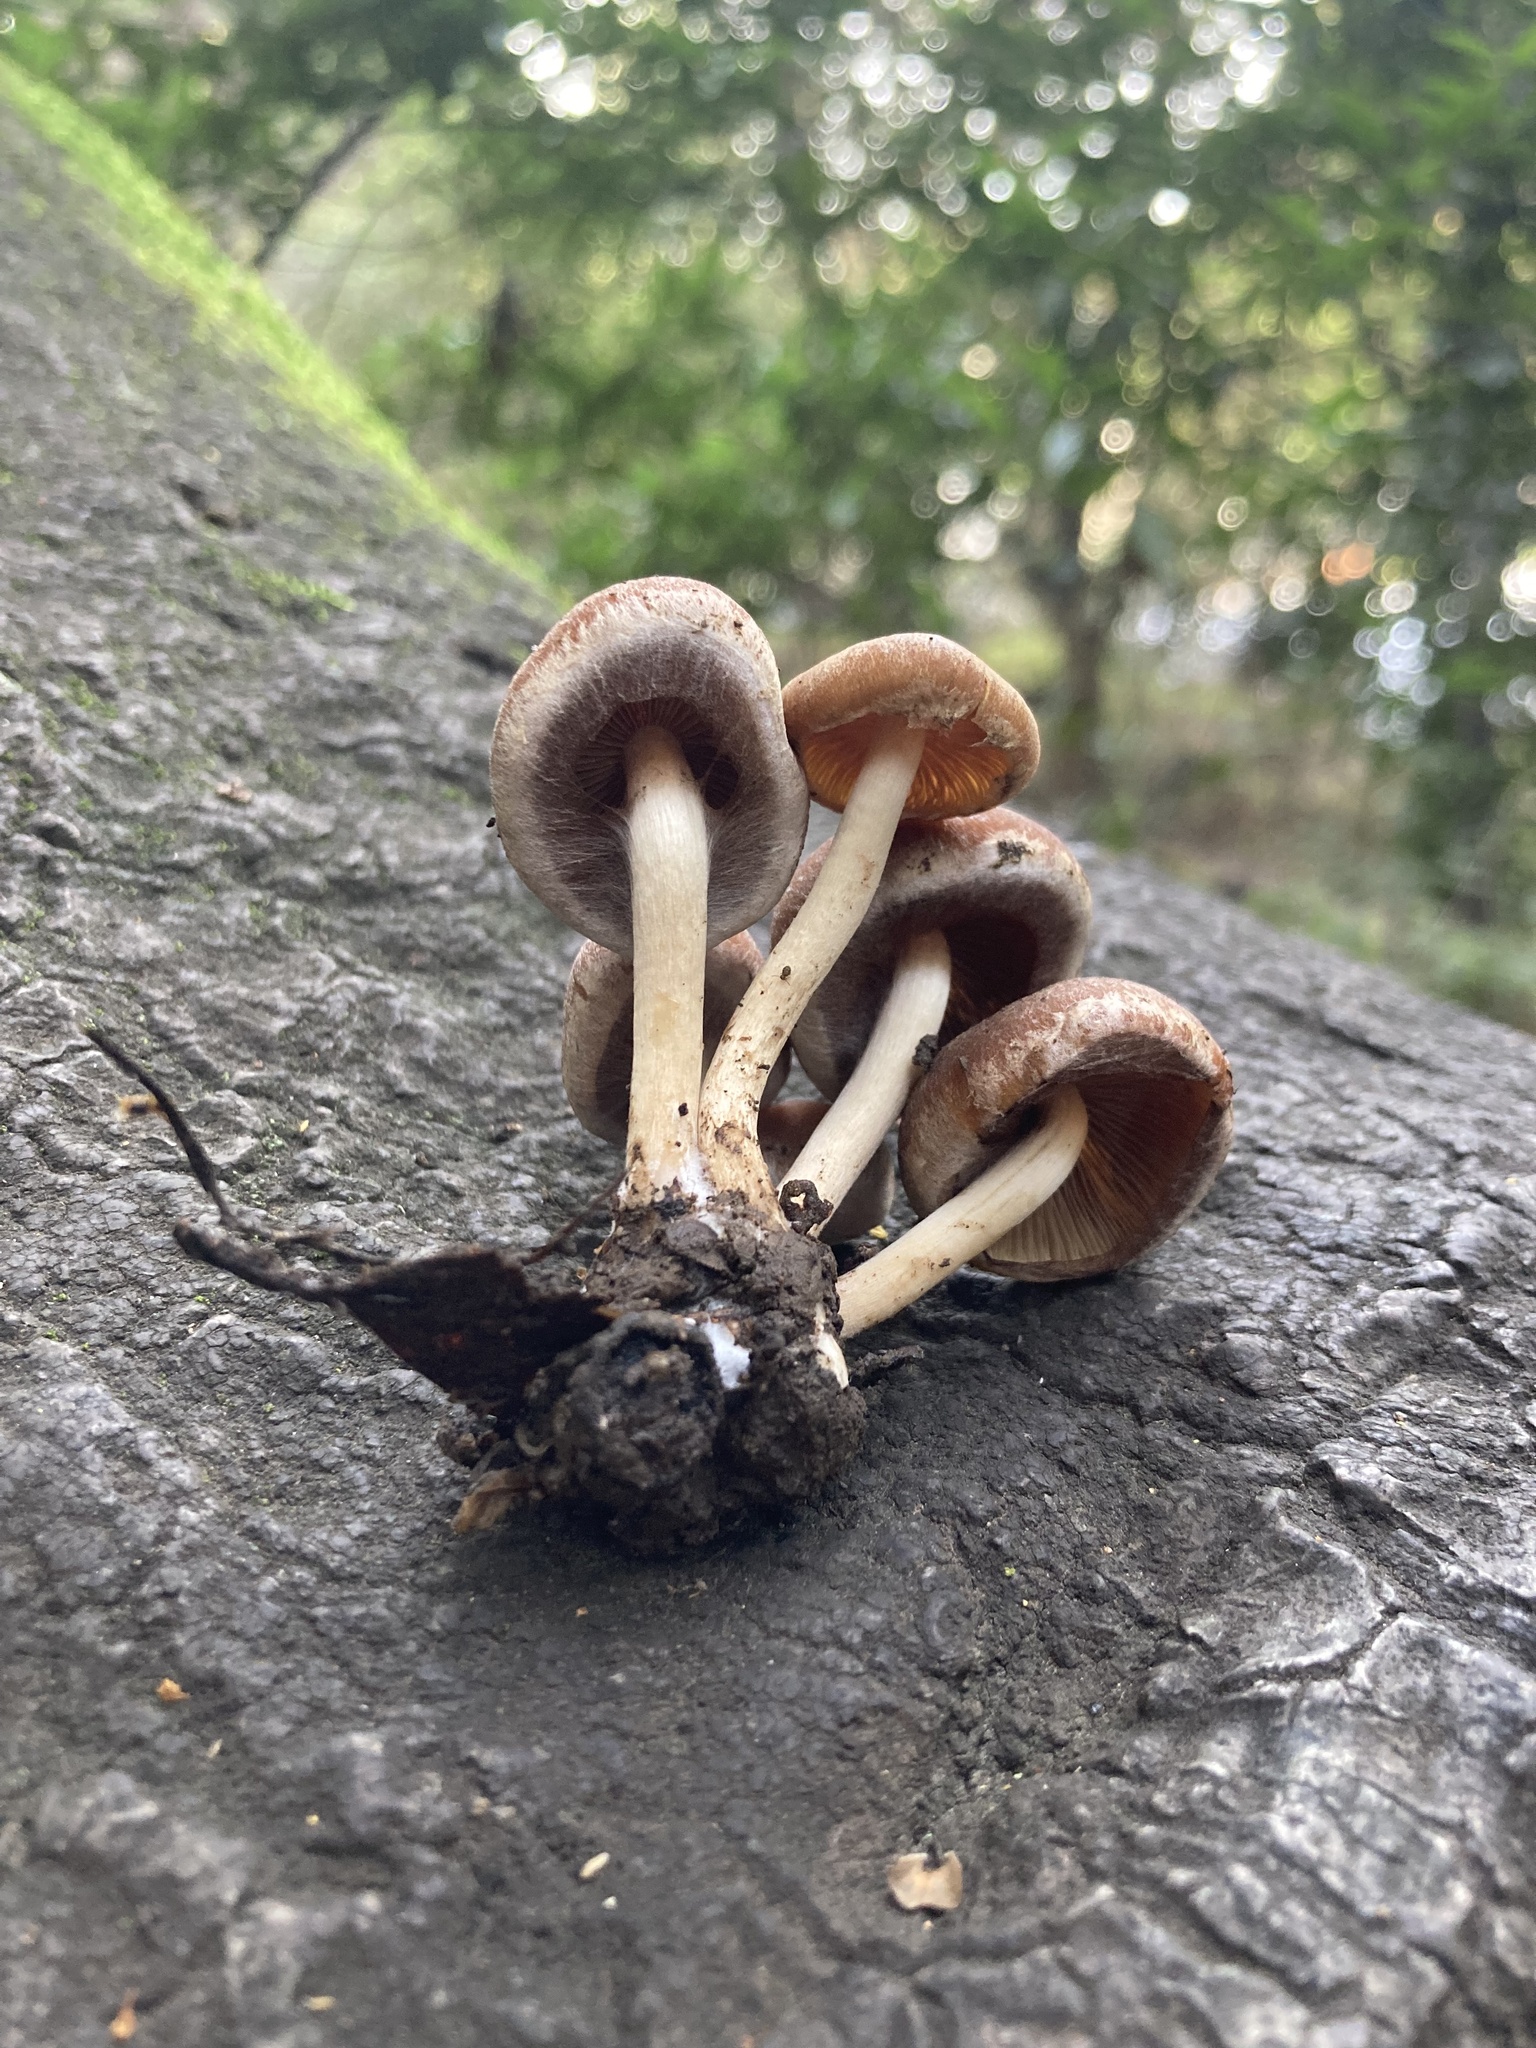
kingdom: Fungi
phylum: Basidiomycota
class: Agaricomycetes
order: Agaricales
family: Psathyrellaceae
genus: Psathyrella
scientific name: Psathyrella piluliformis
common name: Common stump brittlestem
